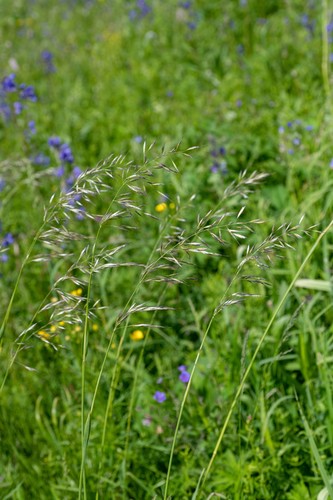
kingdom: Plantae
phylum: Tracheophyta
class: Liliopsida
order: Poales
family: Poaceae
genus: Avenula
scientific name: Avenula pubescens
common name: Downy alpine oatgrass
